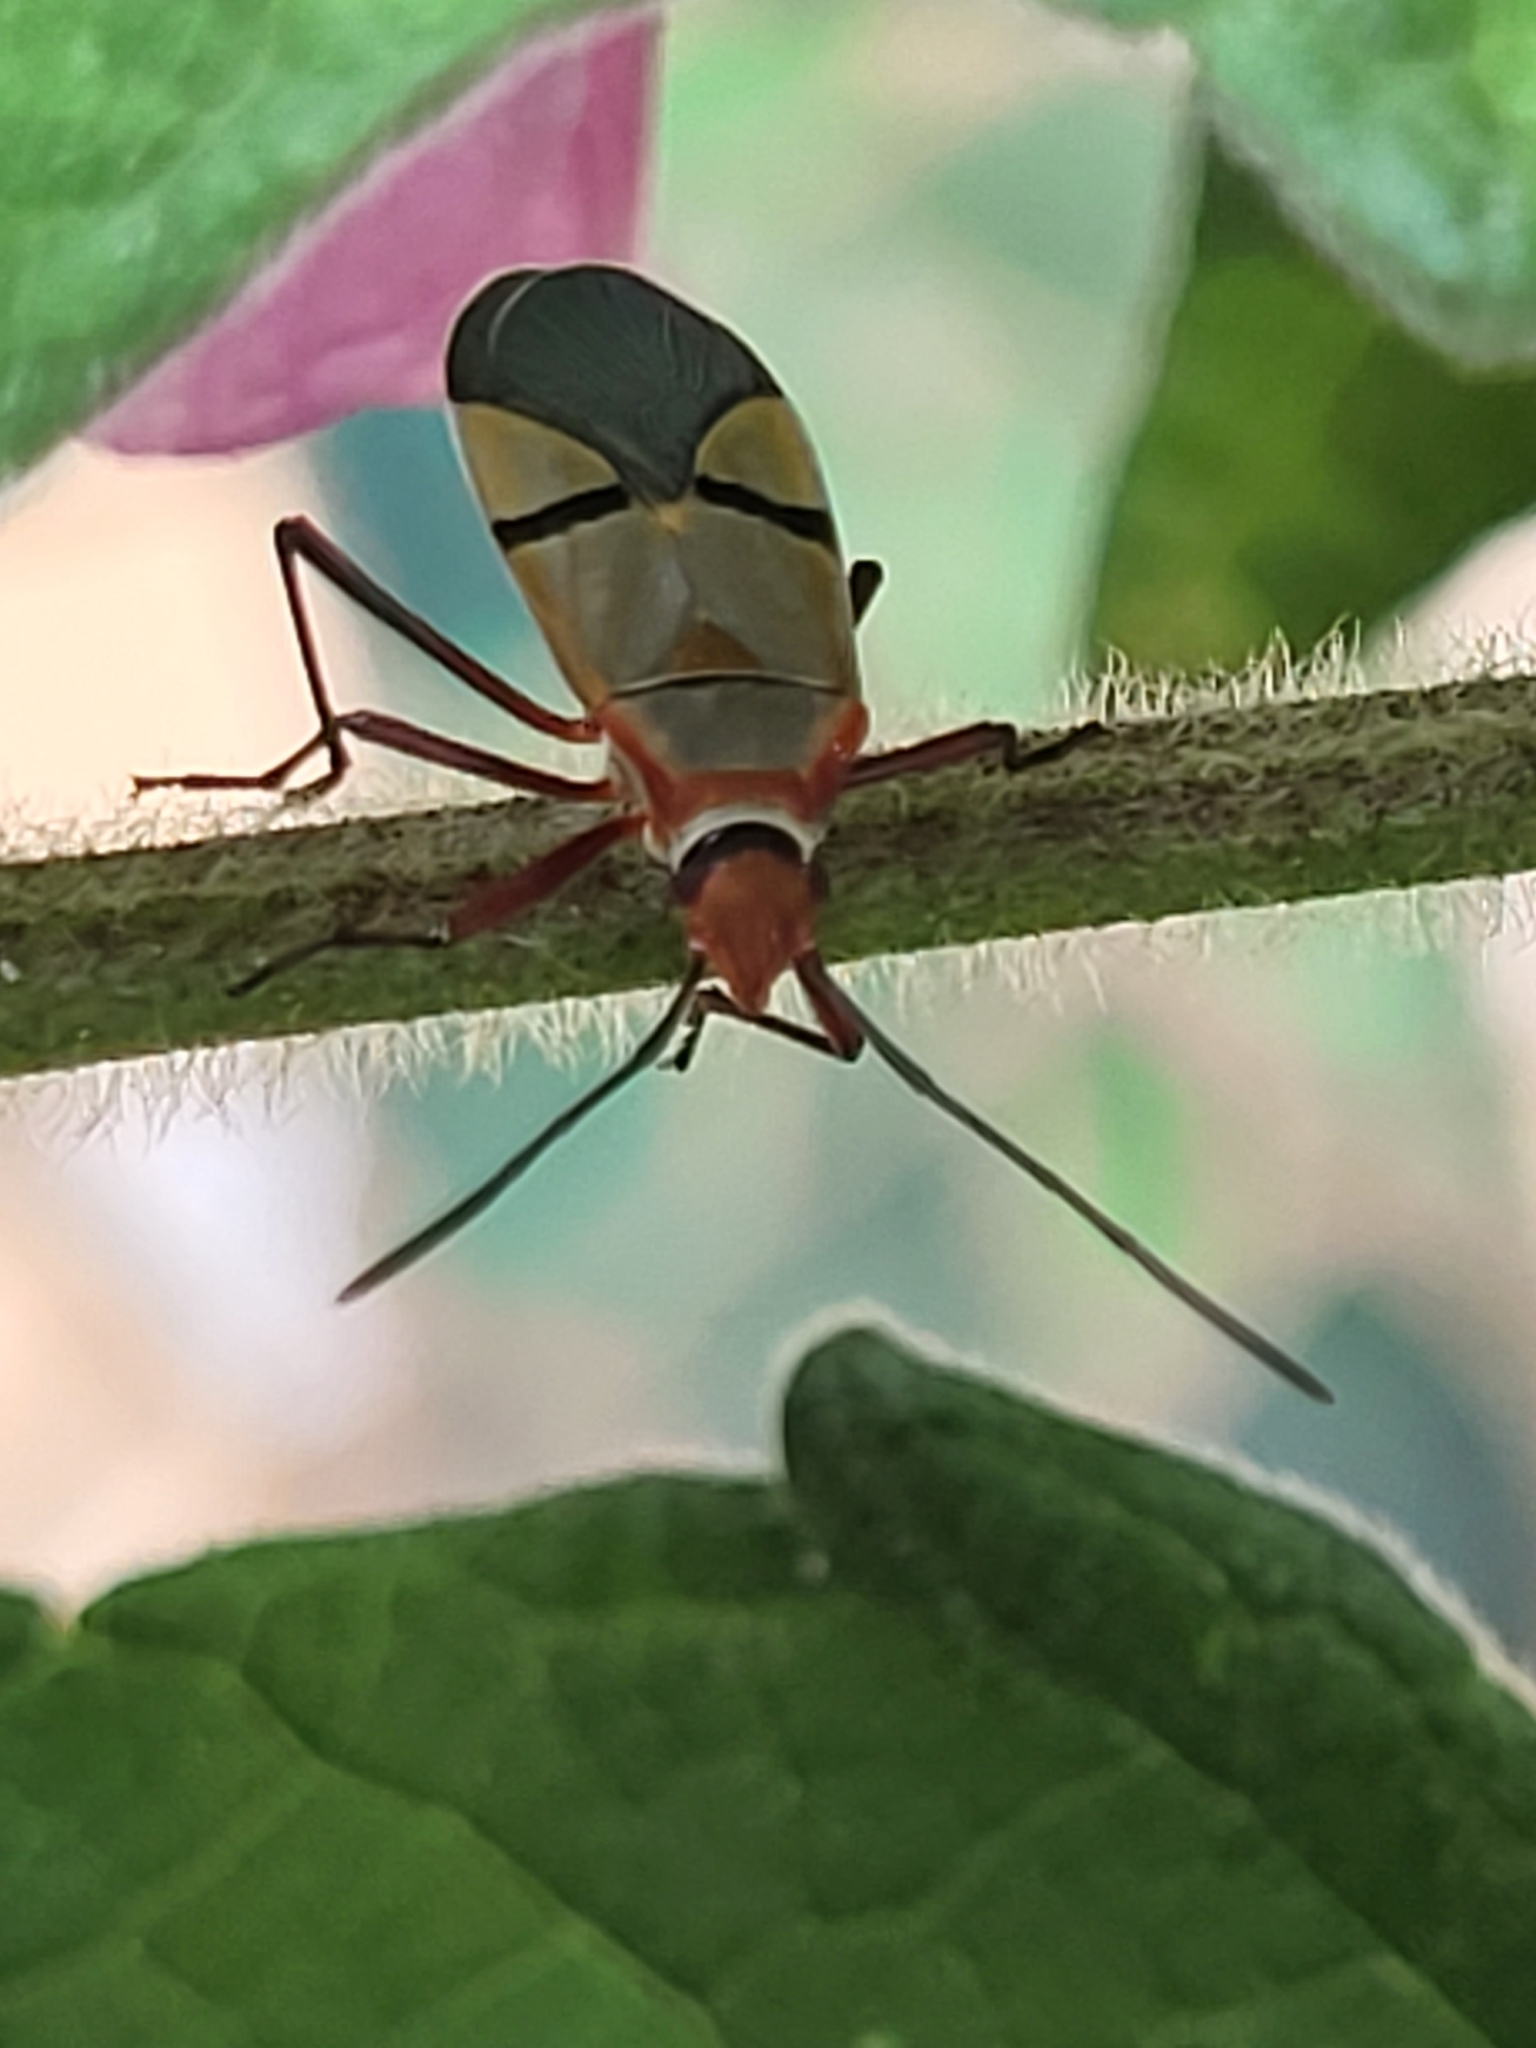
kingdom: Animalia
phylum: Arthropoda
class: Insecta
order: Hemiptera
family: Pyrrhocoridae
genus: Dysdercus
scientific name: Dysdercus
